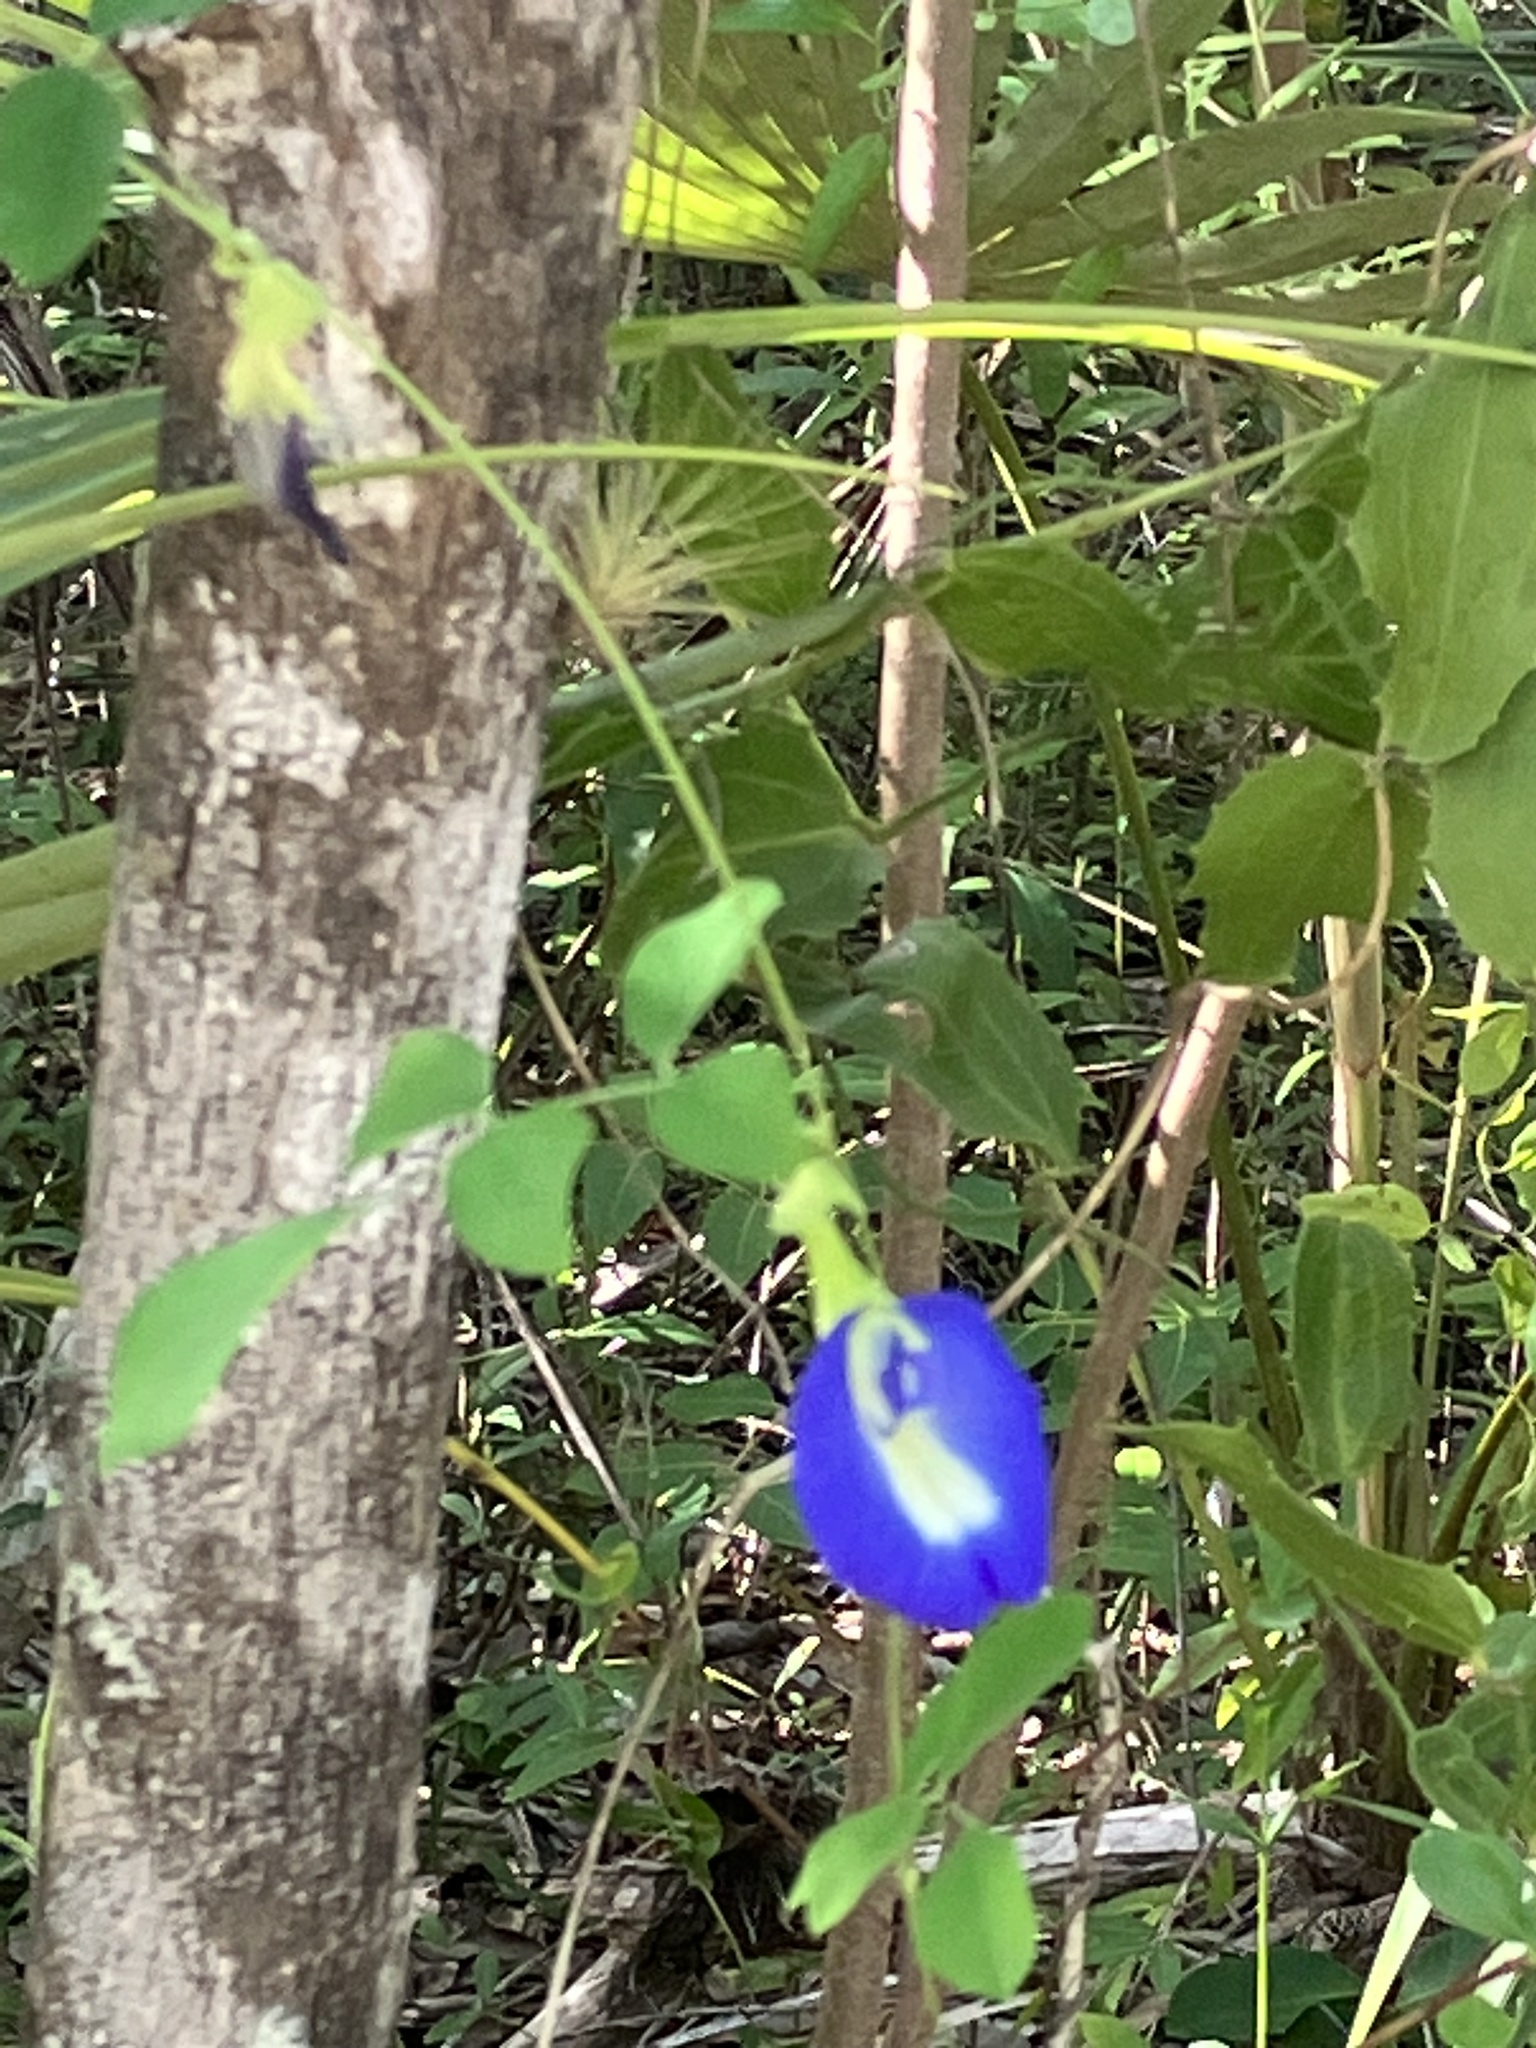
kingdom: Plantae
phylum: Tracheophyta
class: Magnoliopsida
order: Fabales
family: Fabaceae
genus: Clitoria
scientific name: Clitoria ternatea
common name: Asian pigeonwings
